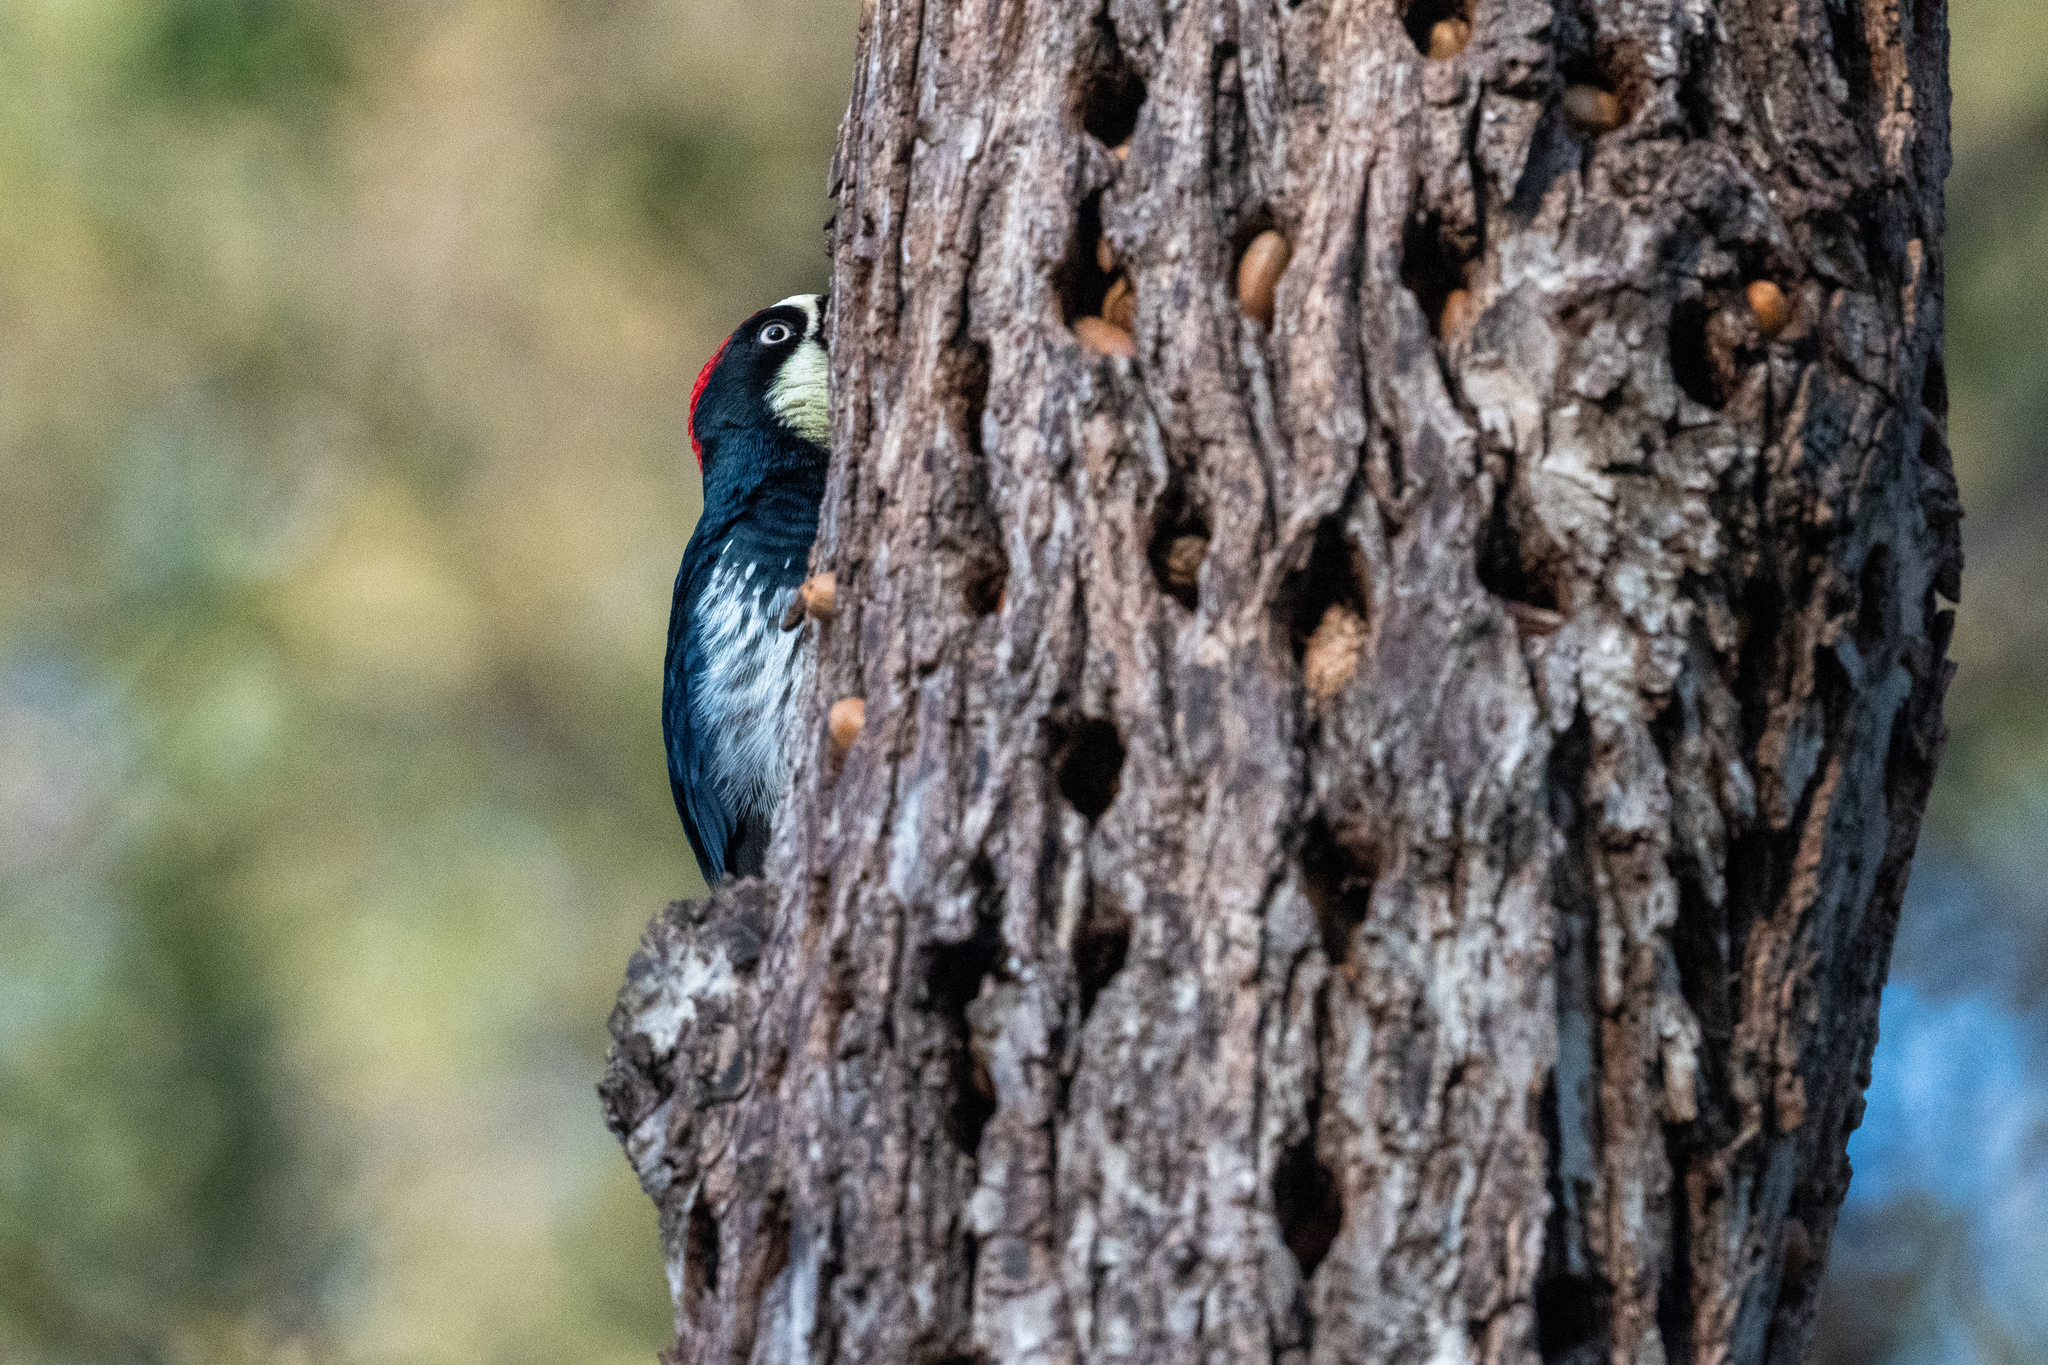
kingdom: Animalia
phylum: Chordata
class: Aves
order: Piciformes
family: Picidae
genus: Melanerpes
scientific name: Melanerpes formicivorus
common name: Acorn woodpecker
